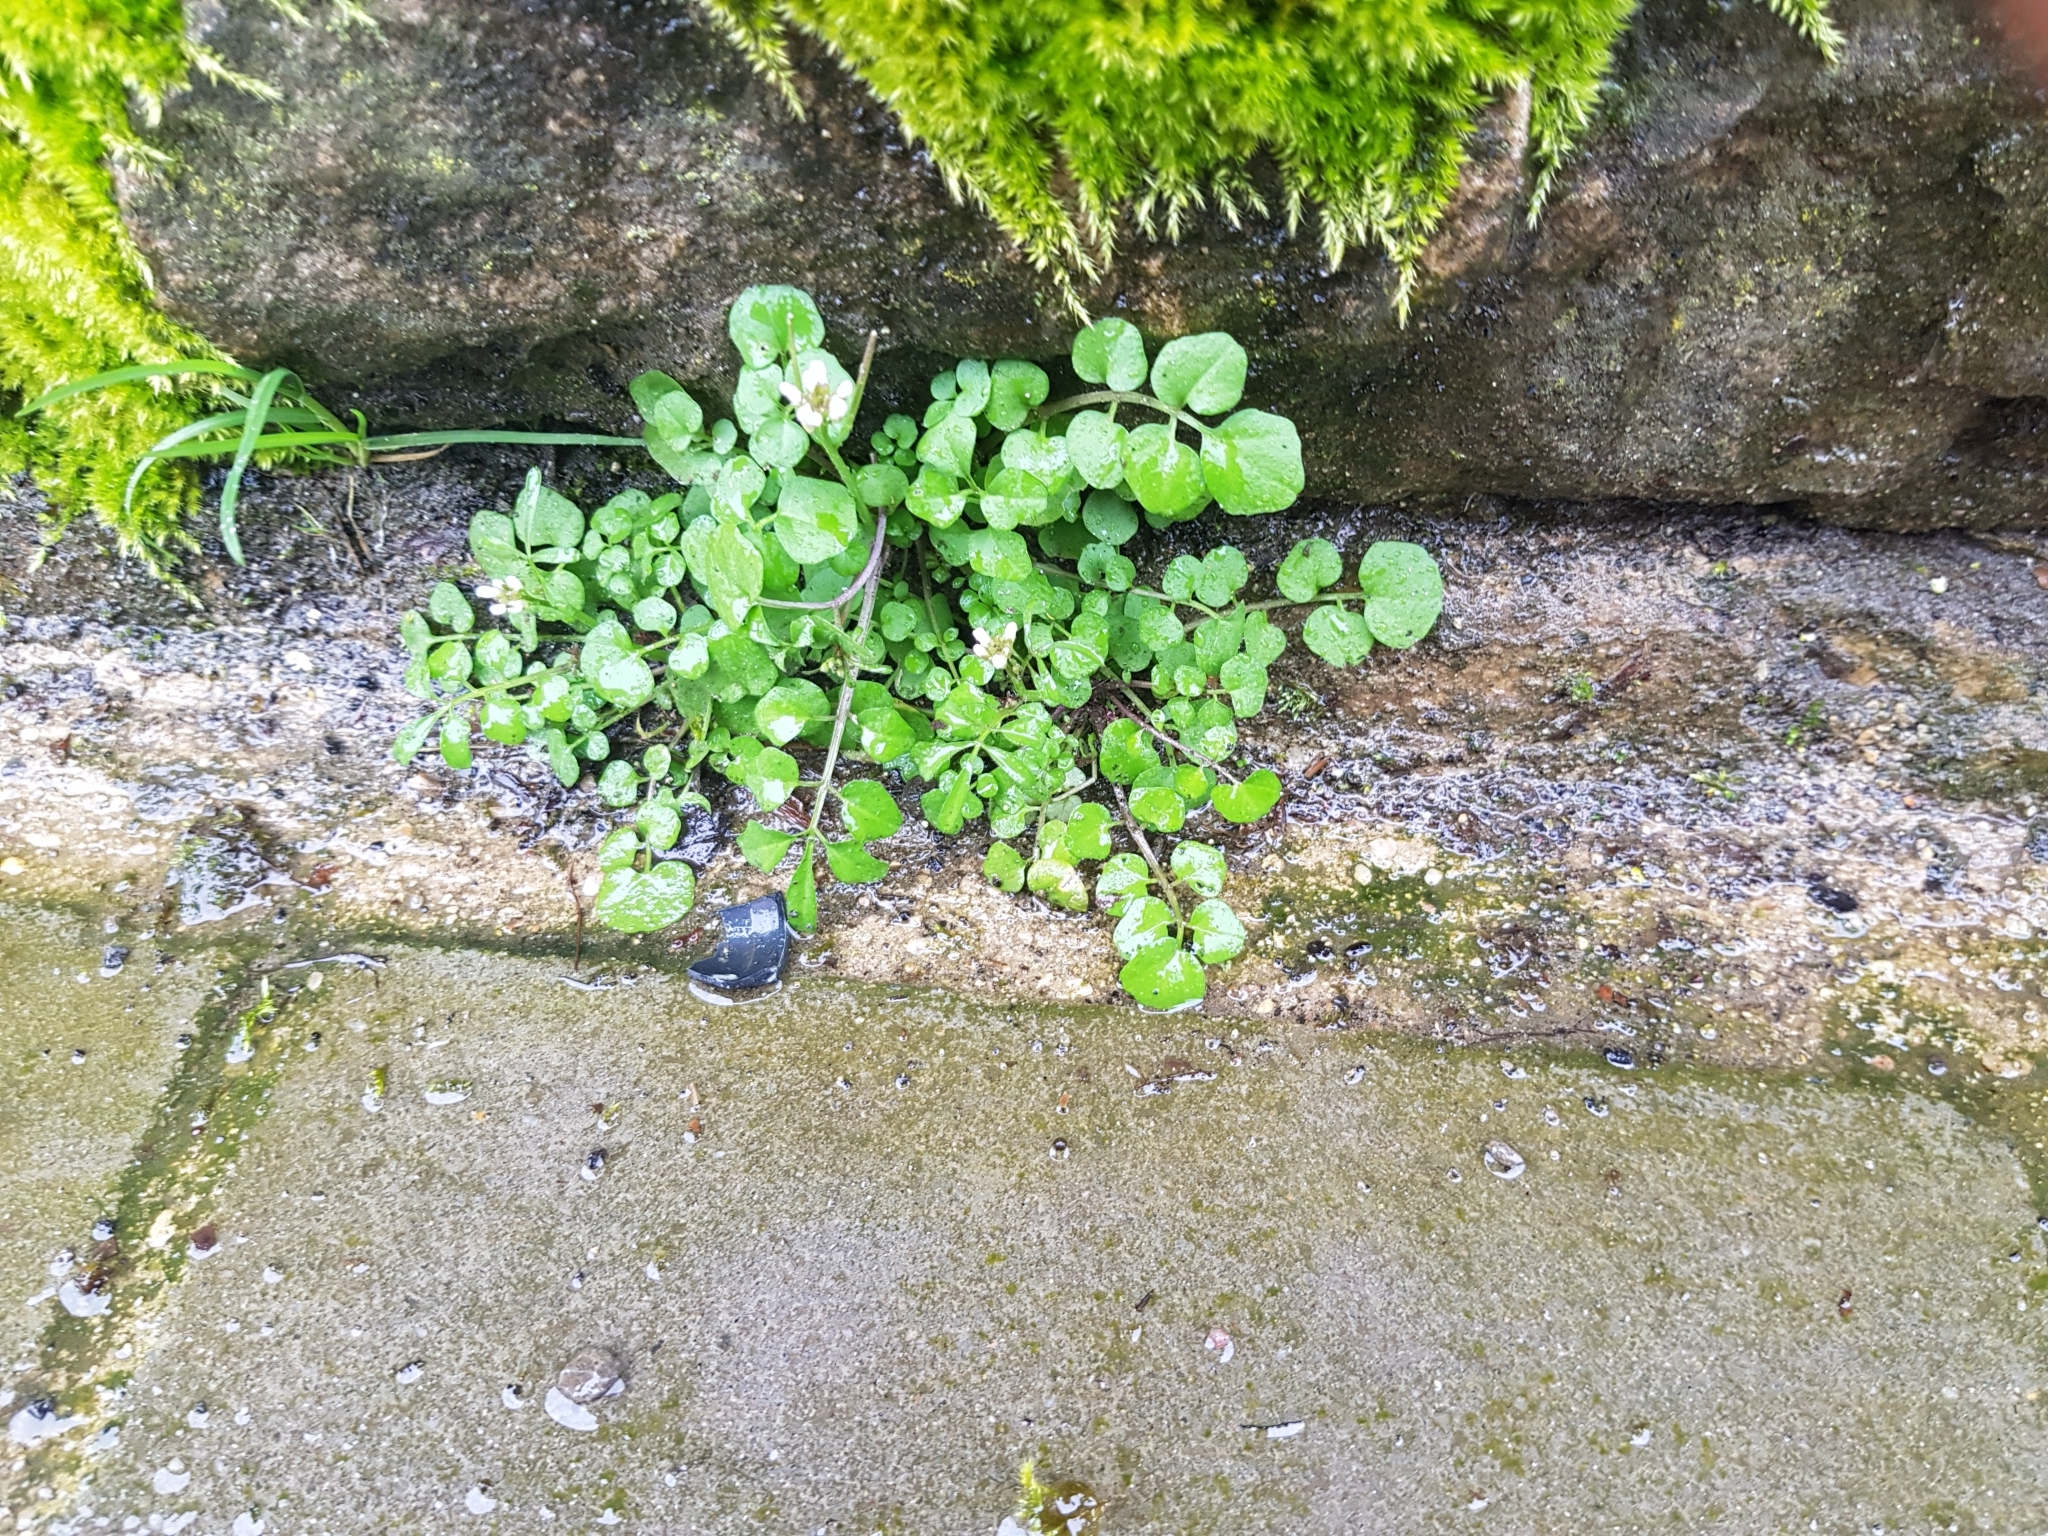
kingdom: Plantae
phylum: Tracheophyta
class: Magnoliopsida
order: Brassicales
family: Brassicaceae
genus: Cardamine
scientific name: Cardamine flexuosa
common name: Woodland bittercress
